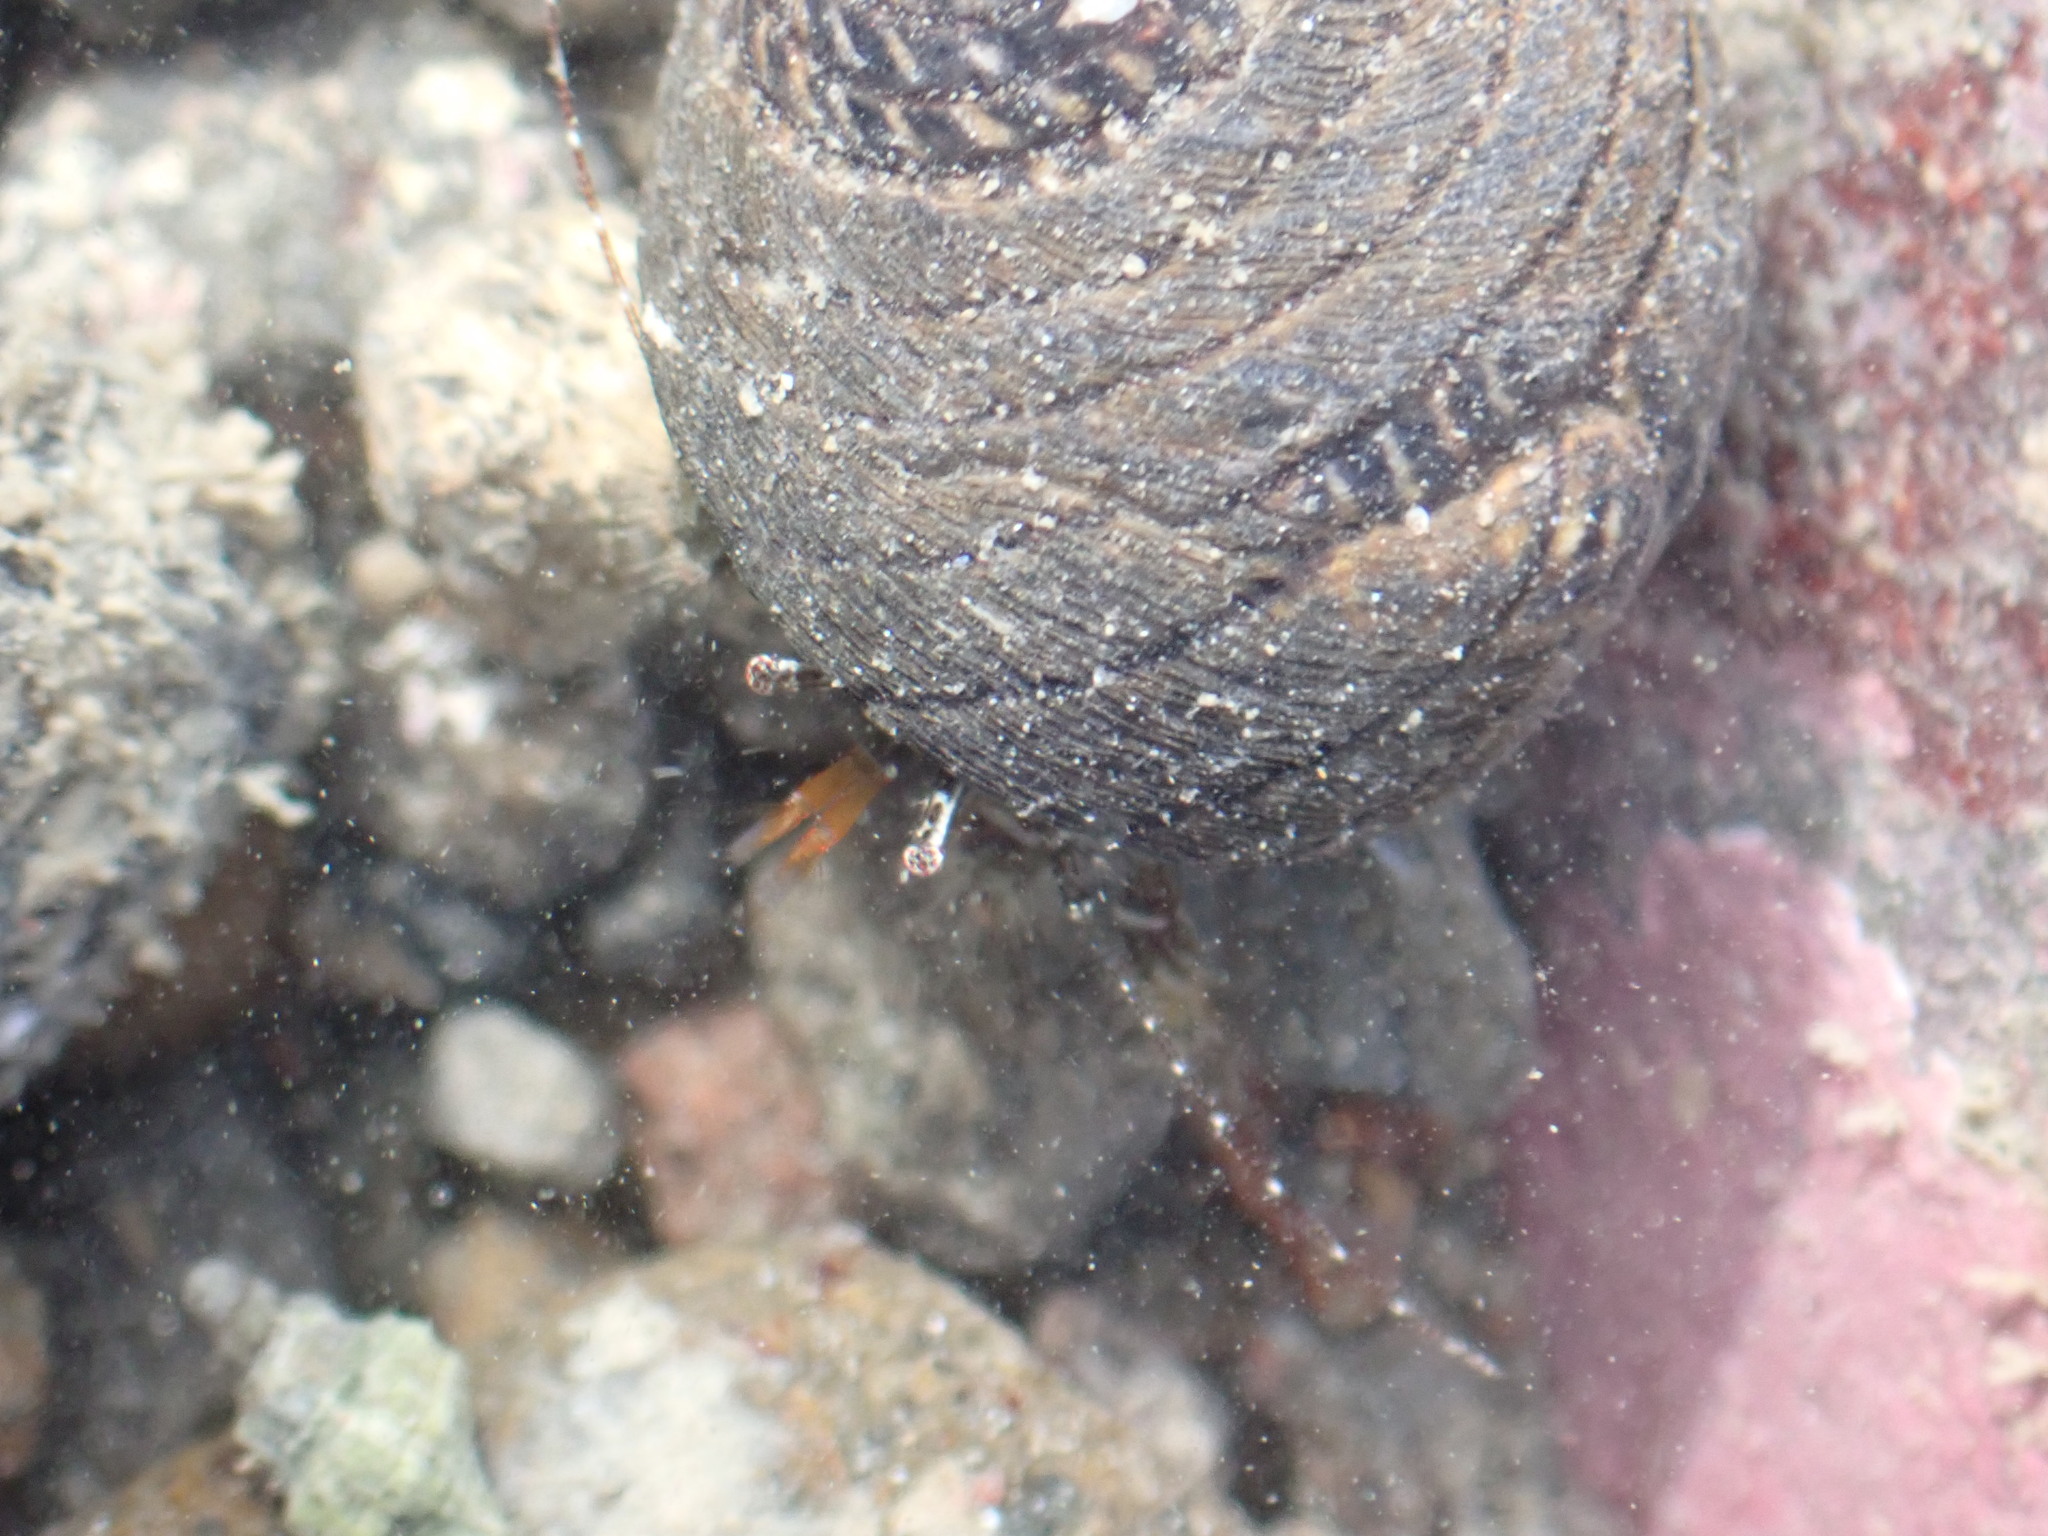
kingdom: Animalia
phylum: Arthropoda
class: Malacostraca
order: Decapoda
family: Paguridae
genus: Pagurus
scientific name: Pagurus traversi
